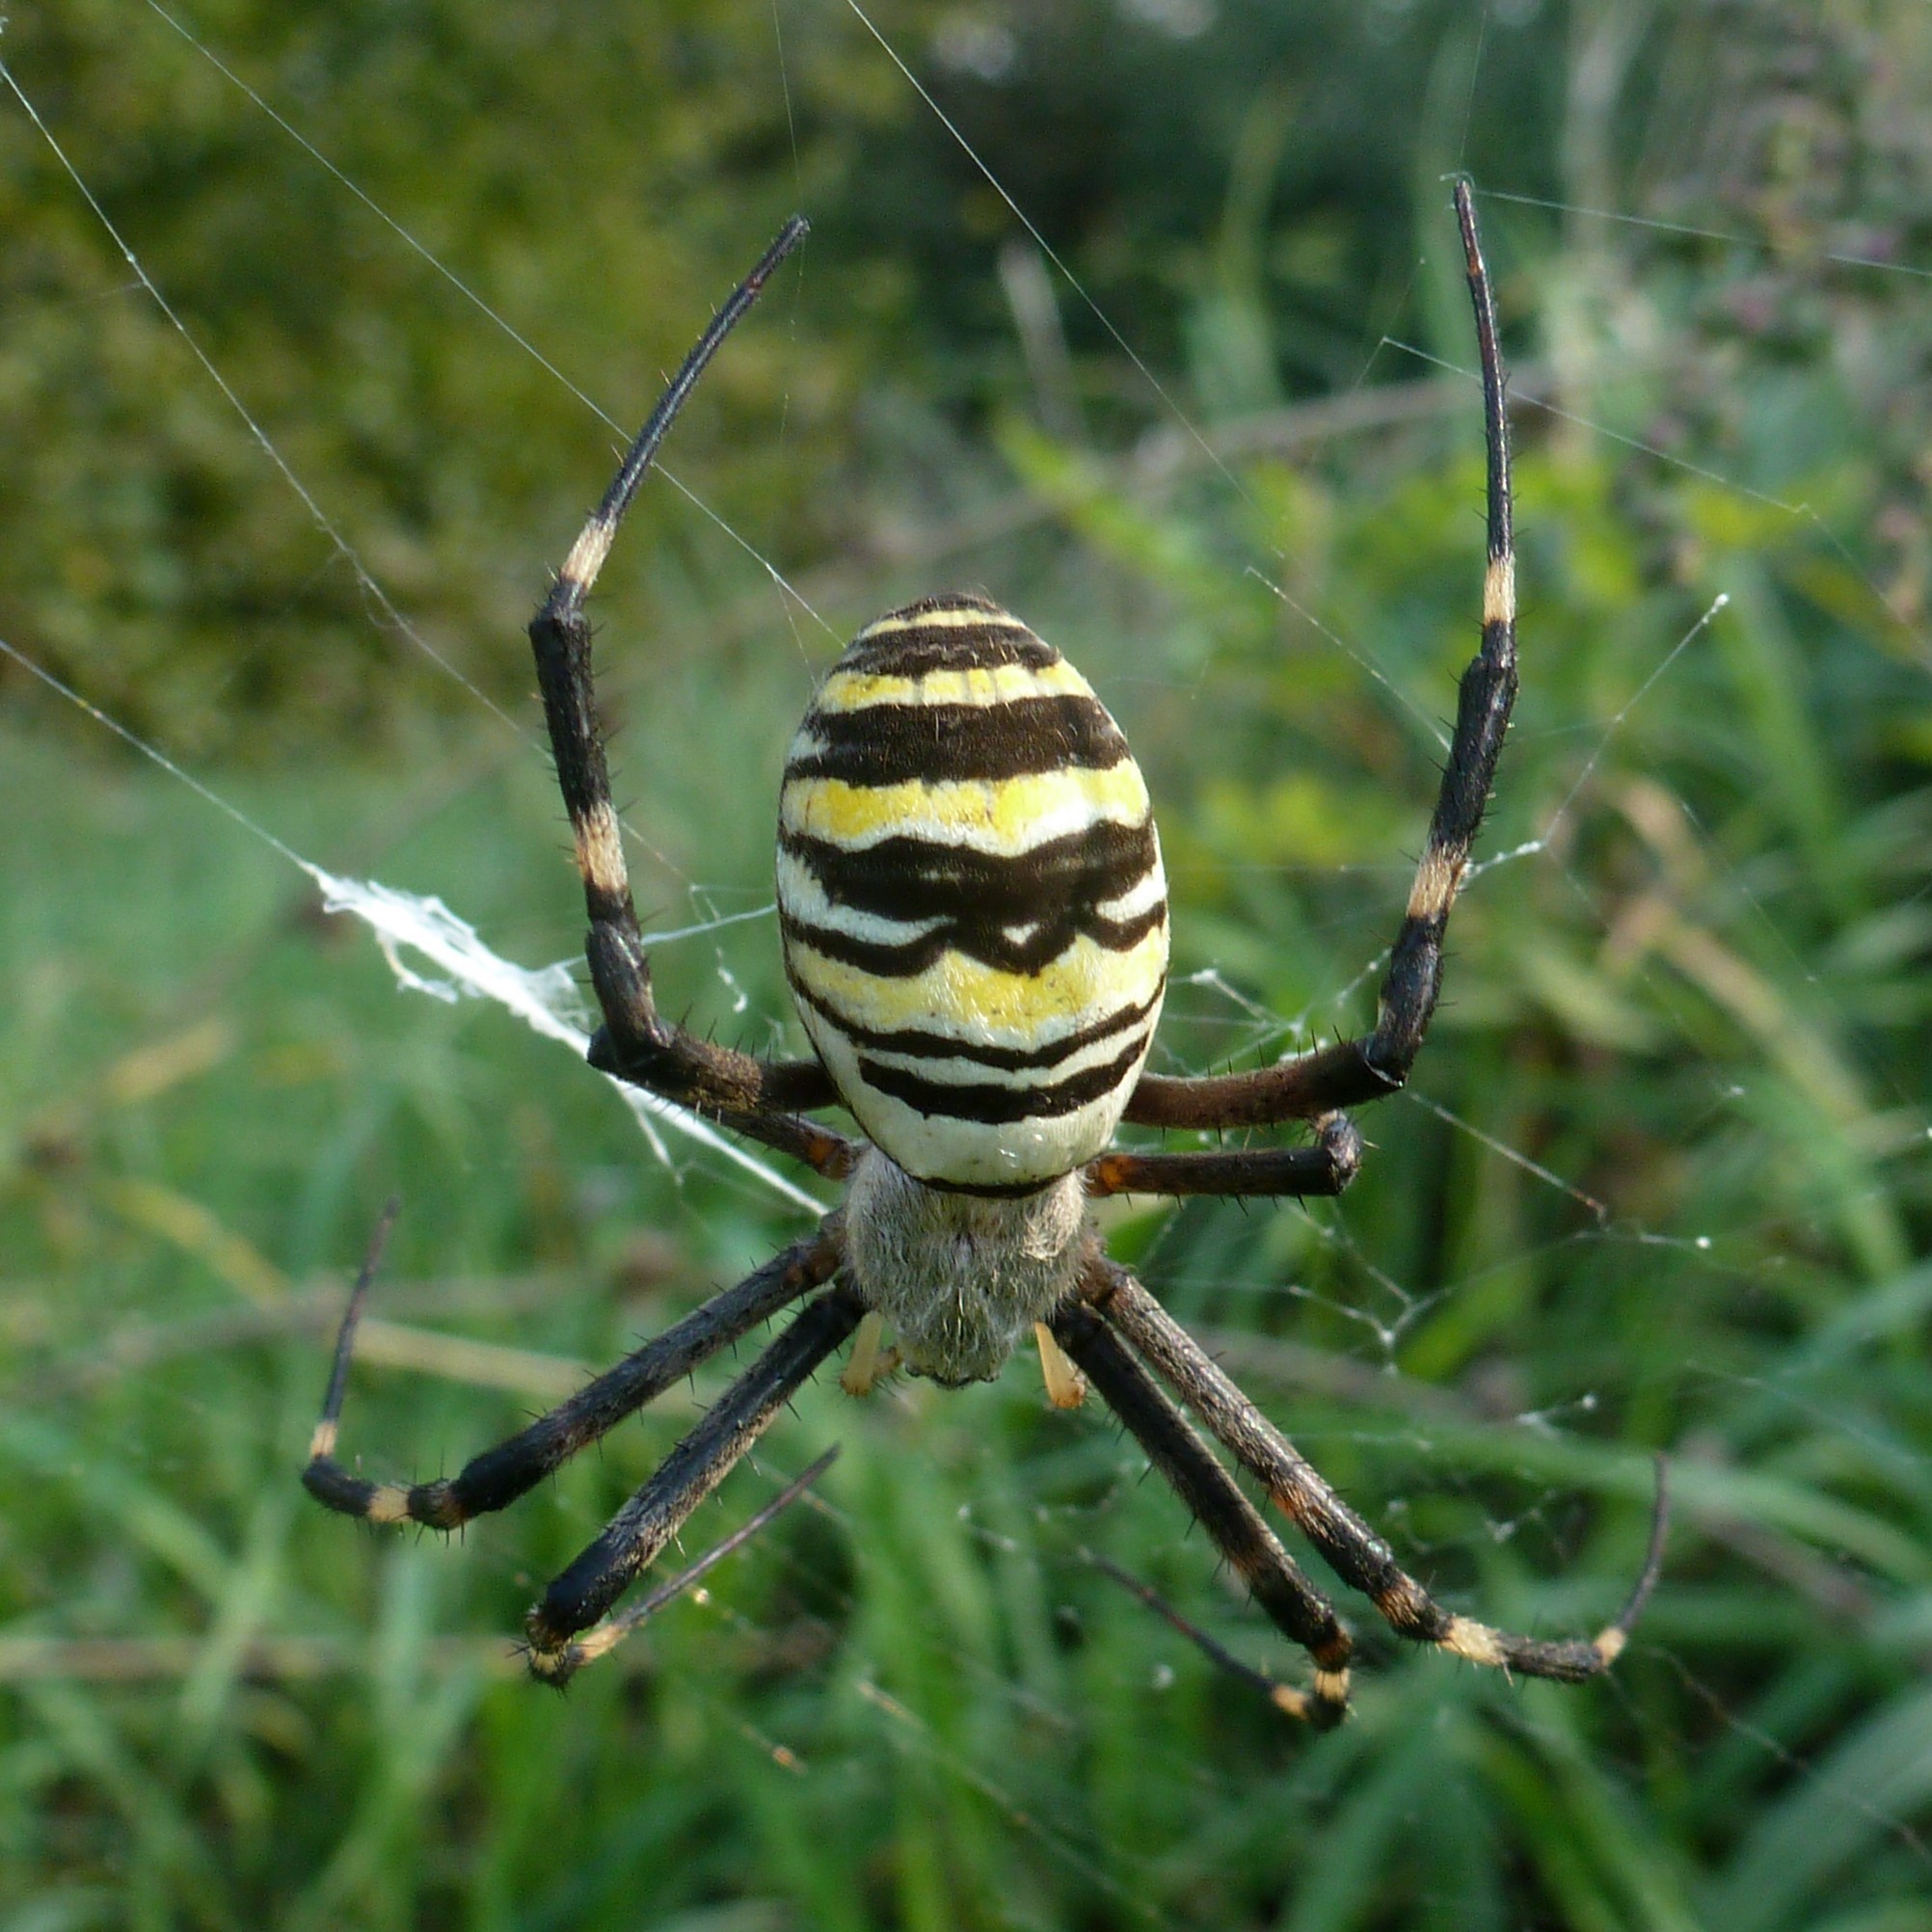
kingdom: Animalia
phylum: Arthropoda
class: Arachnida
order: Araneae
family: Araneidae
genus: Argiope
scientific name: Argiope bruennichi
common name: Wasp spider
